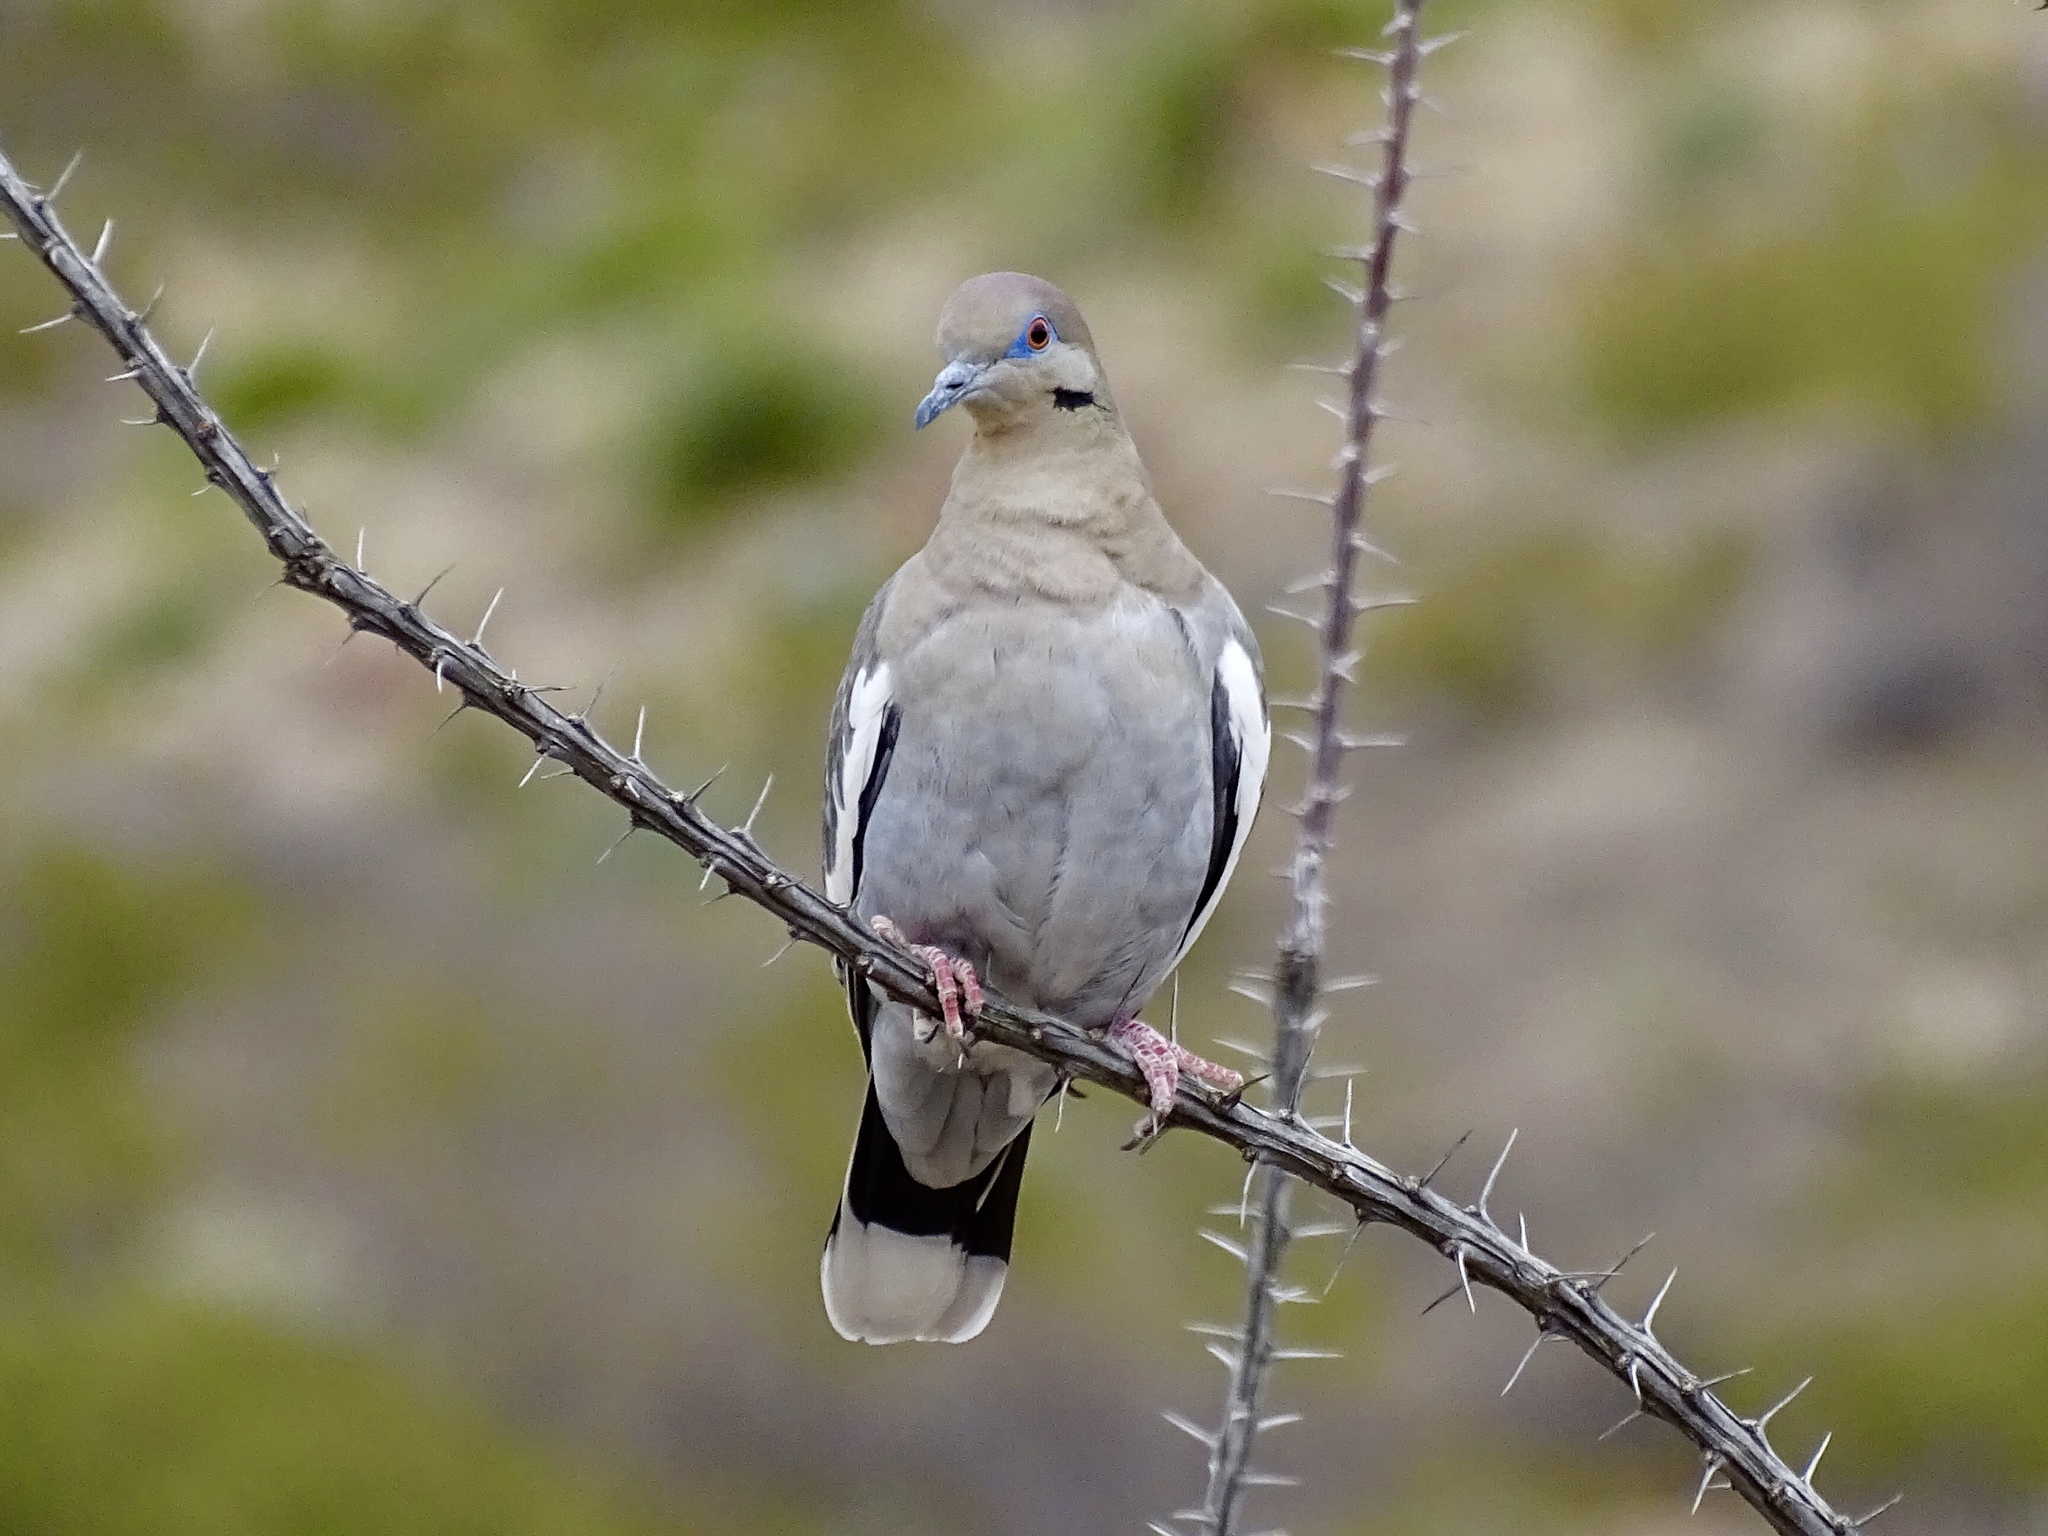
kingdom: Animalia
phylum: Chordata
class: Aves
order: Columbiformes
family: Columbidae
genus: Zenaida
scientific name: Zenaida asiatica
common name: White-winged dove
